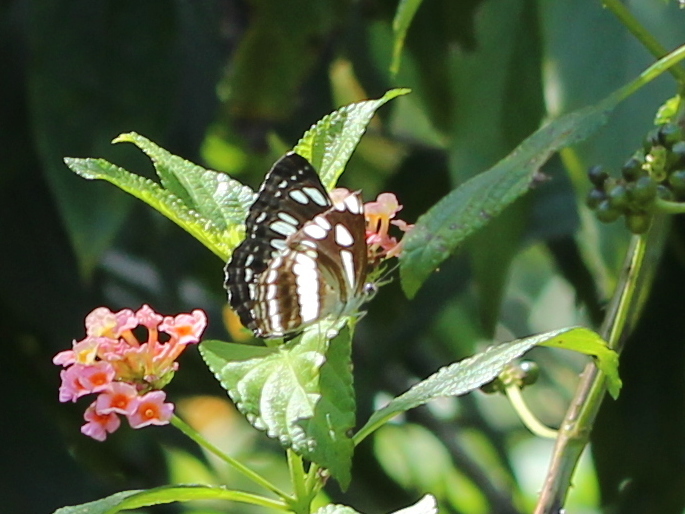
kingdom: Animalia
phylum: Arthropoda
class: Insecta
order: Lepidoptera
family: Nymphalidae
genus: Neptis
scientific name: Neptis jumbah
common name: Chestnut-streaked sailer
